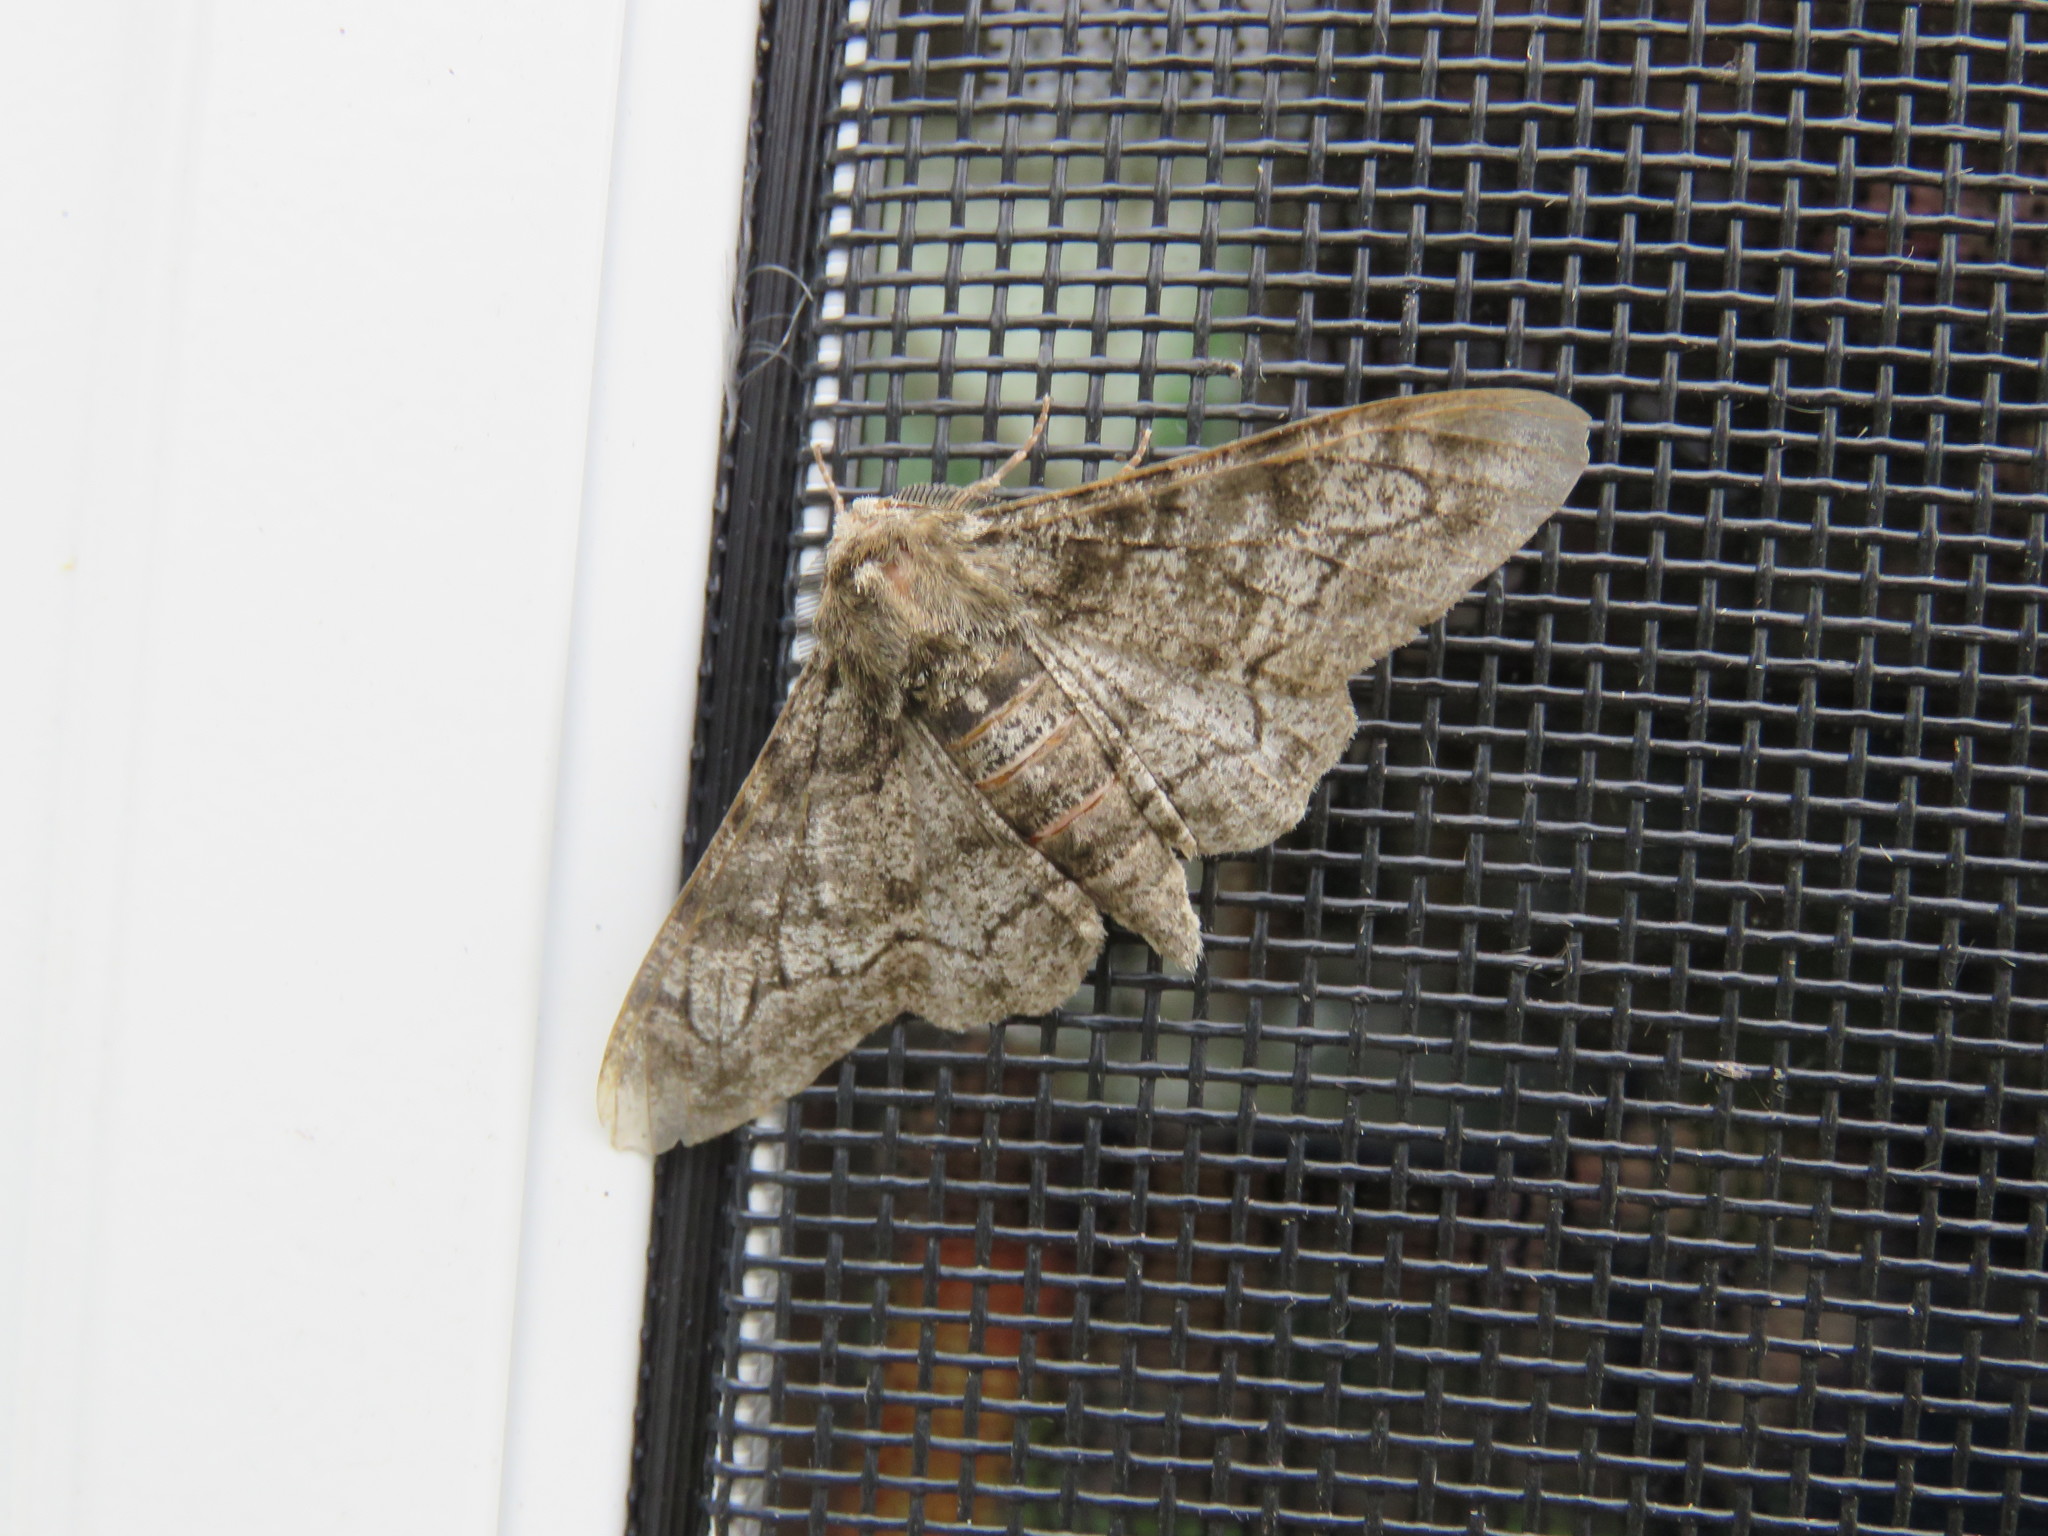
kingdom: Animalia
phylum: Arthropoda
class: Insecta
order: Lepidoptera
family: Geometridae
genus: Biston
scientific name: Biston betularia
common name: Peppered moth
